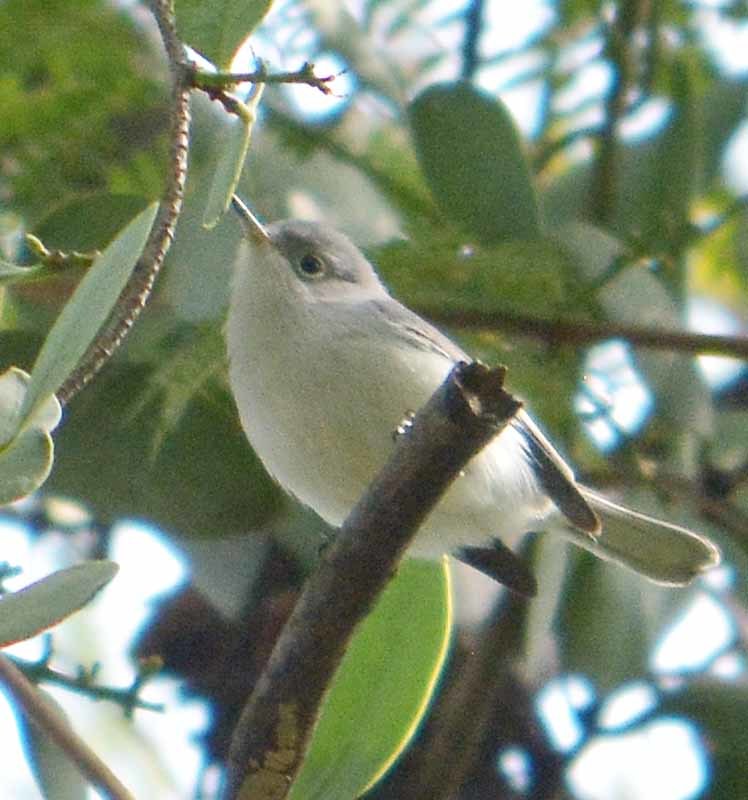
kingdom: Animalia
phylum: Chordata
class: Aves
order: Passeriformes
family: Polioptilidae
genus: Polioptila
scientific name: Polioptila caerulea
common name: Blue-gray gnatcatcher
